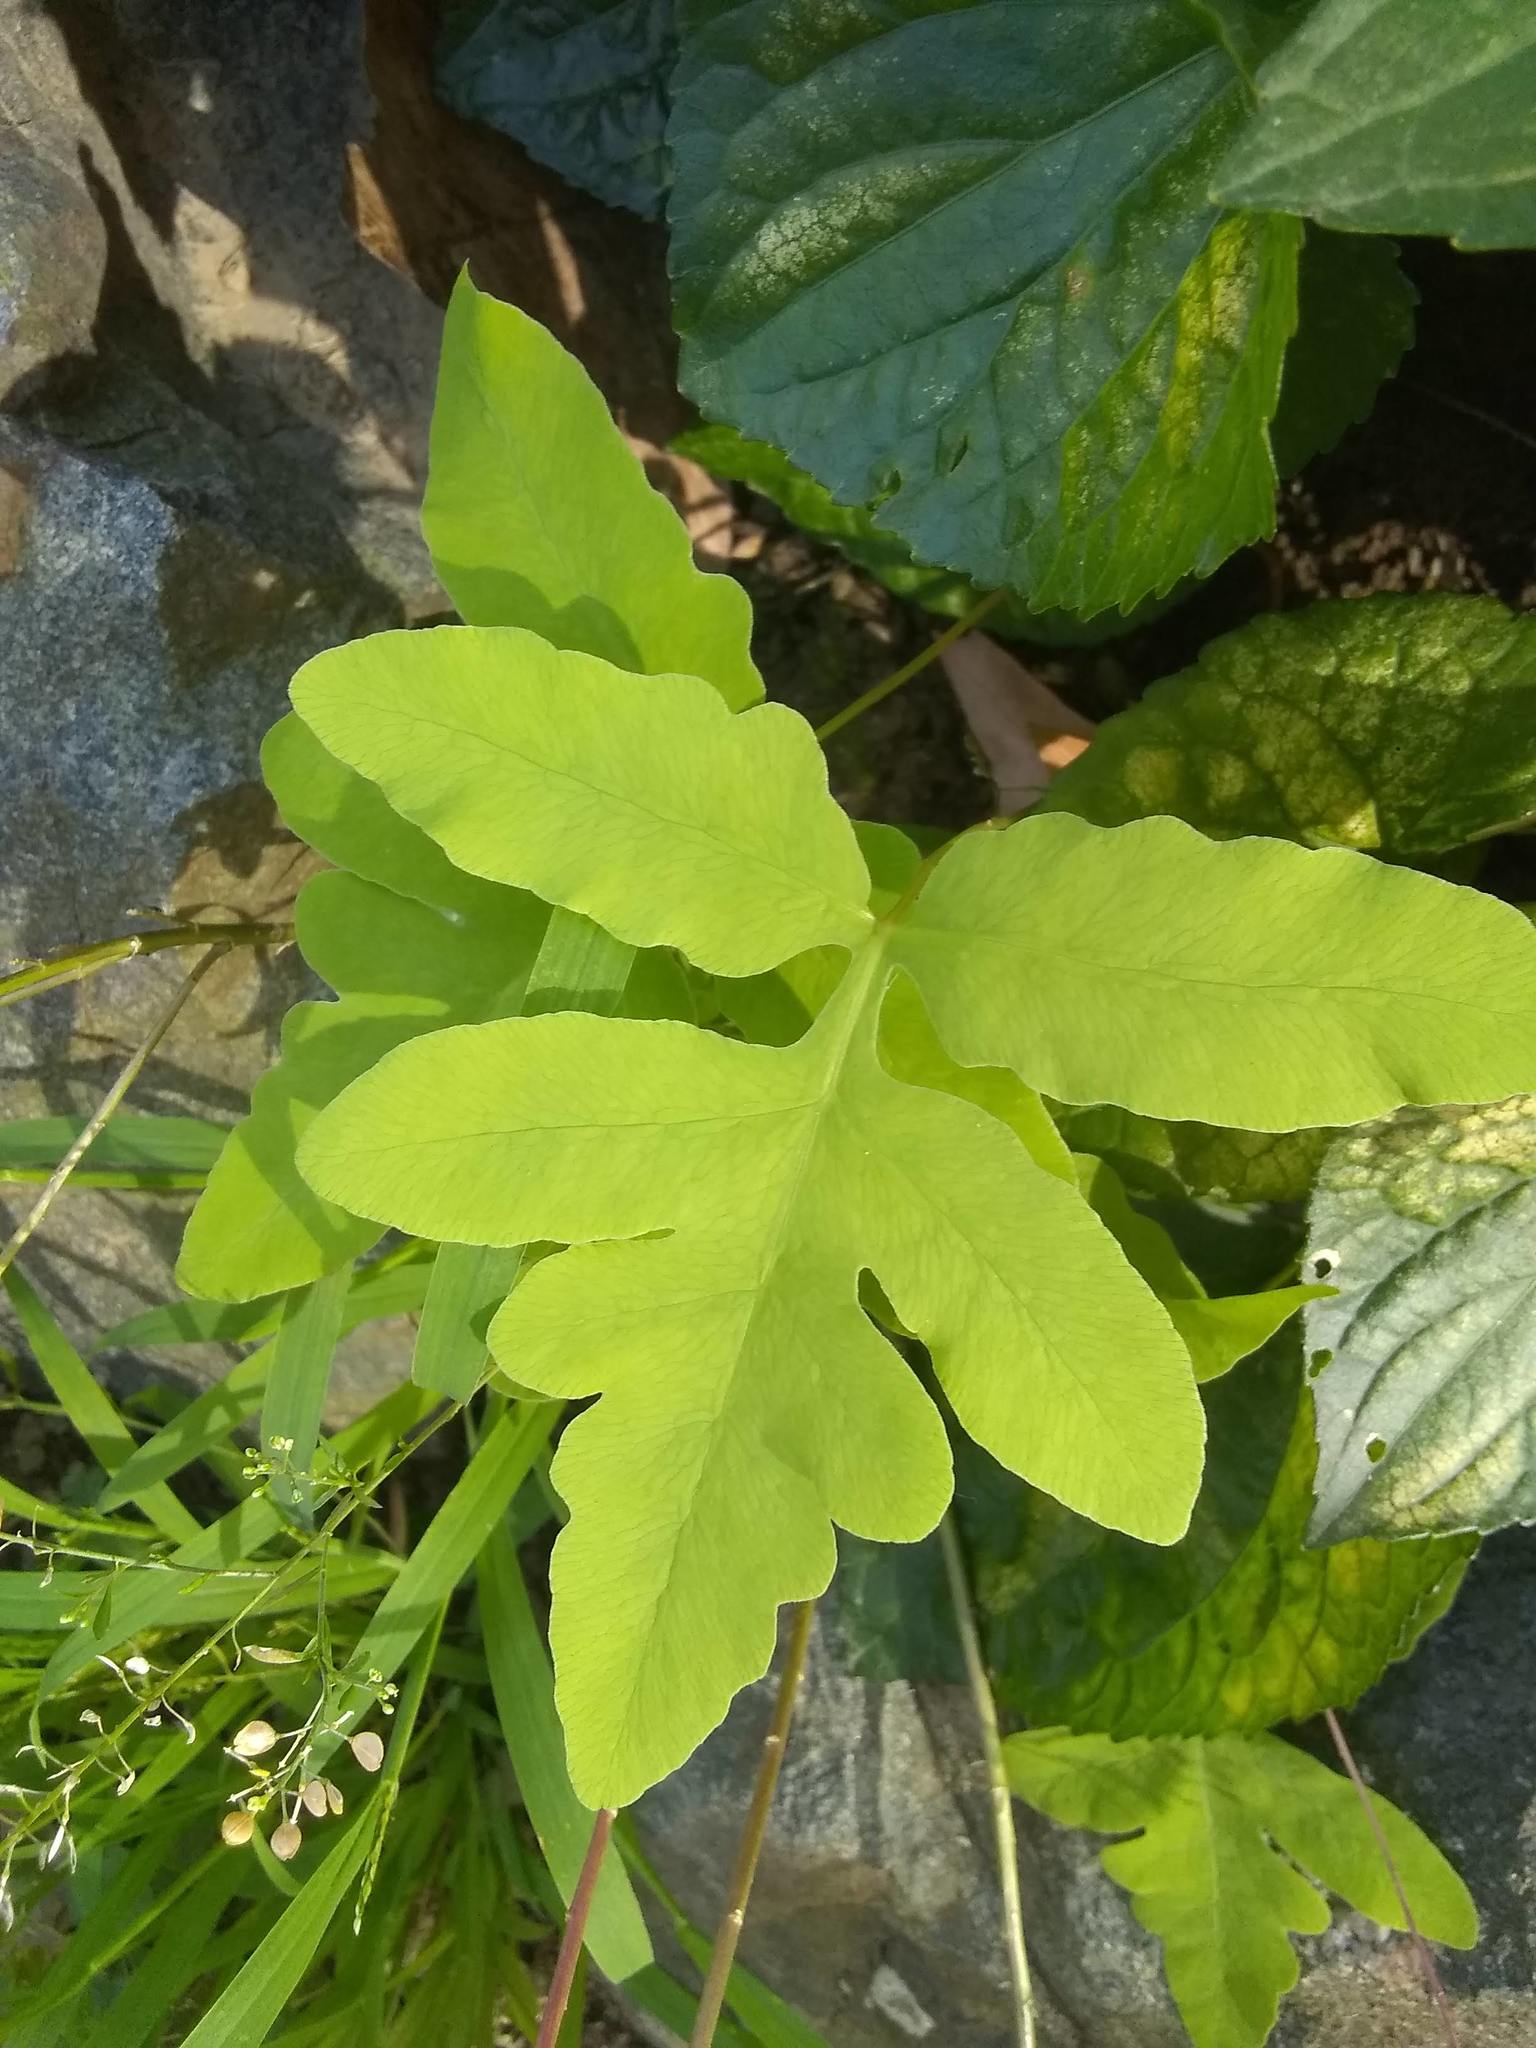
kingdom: Plantae
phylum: Tracheophyta
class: Polypodiopsida
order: Polypodiales
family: Onocleaceae
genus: Onoclea
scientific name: Onoclea sensibilis
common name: Sensitive fern
